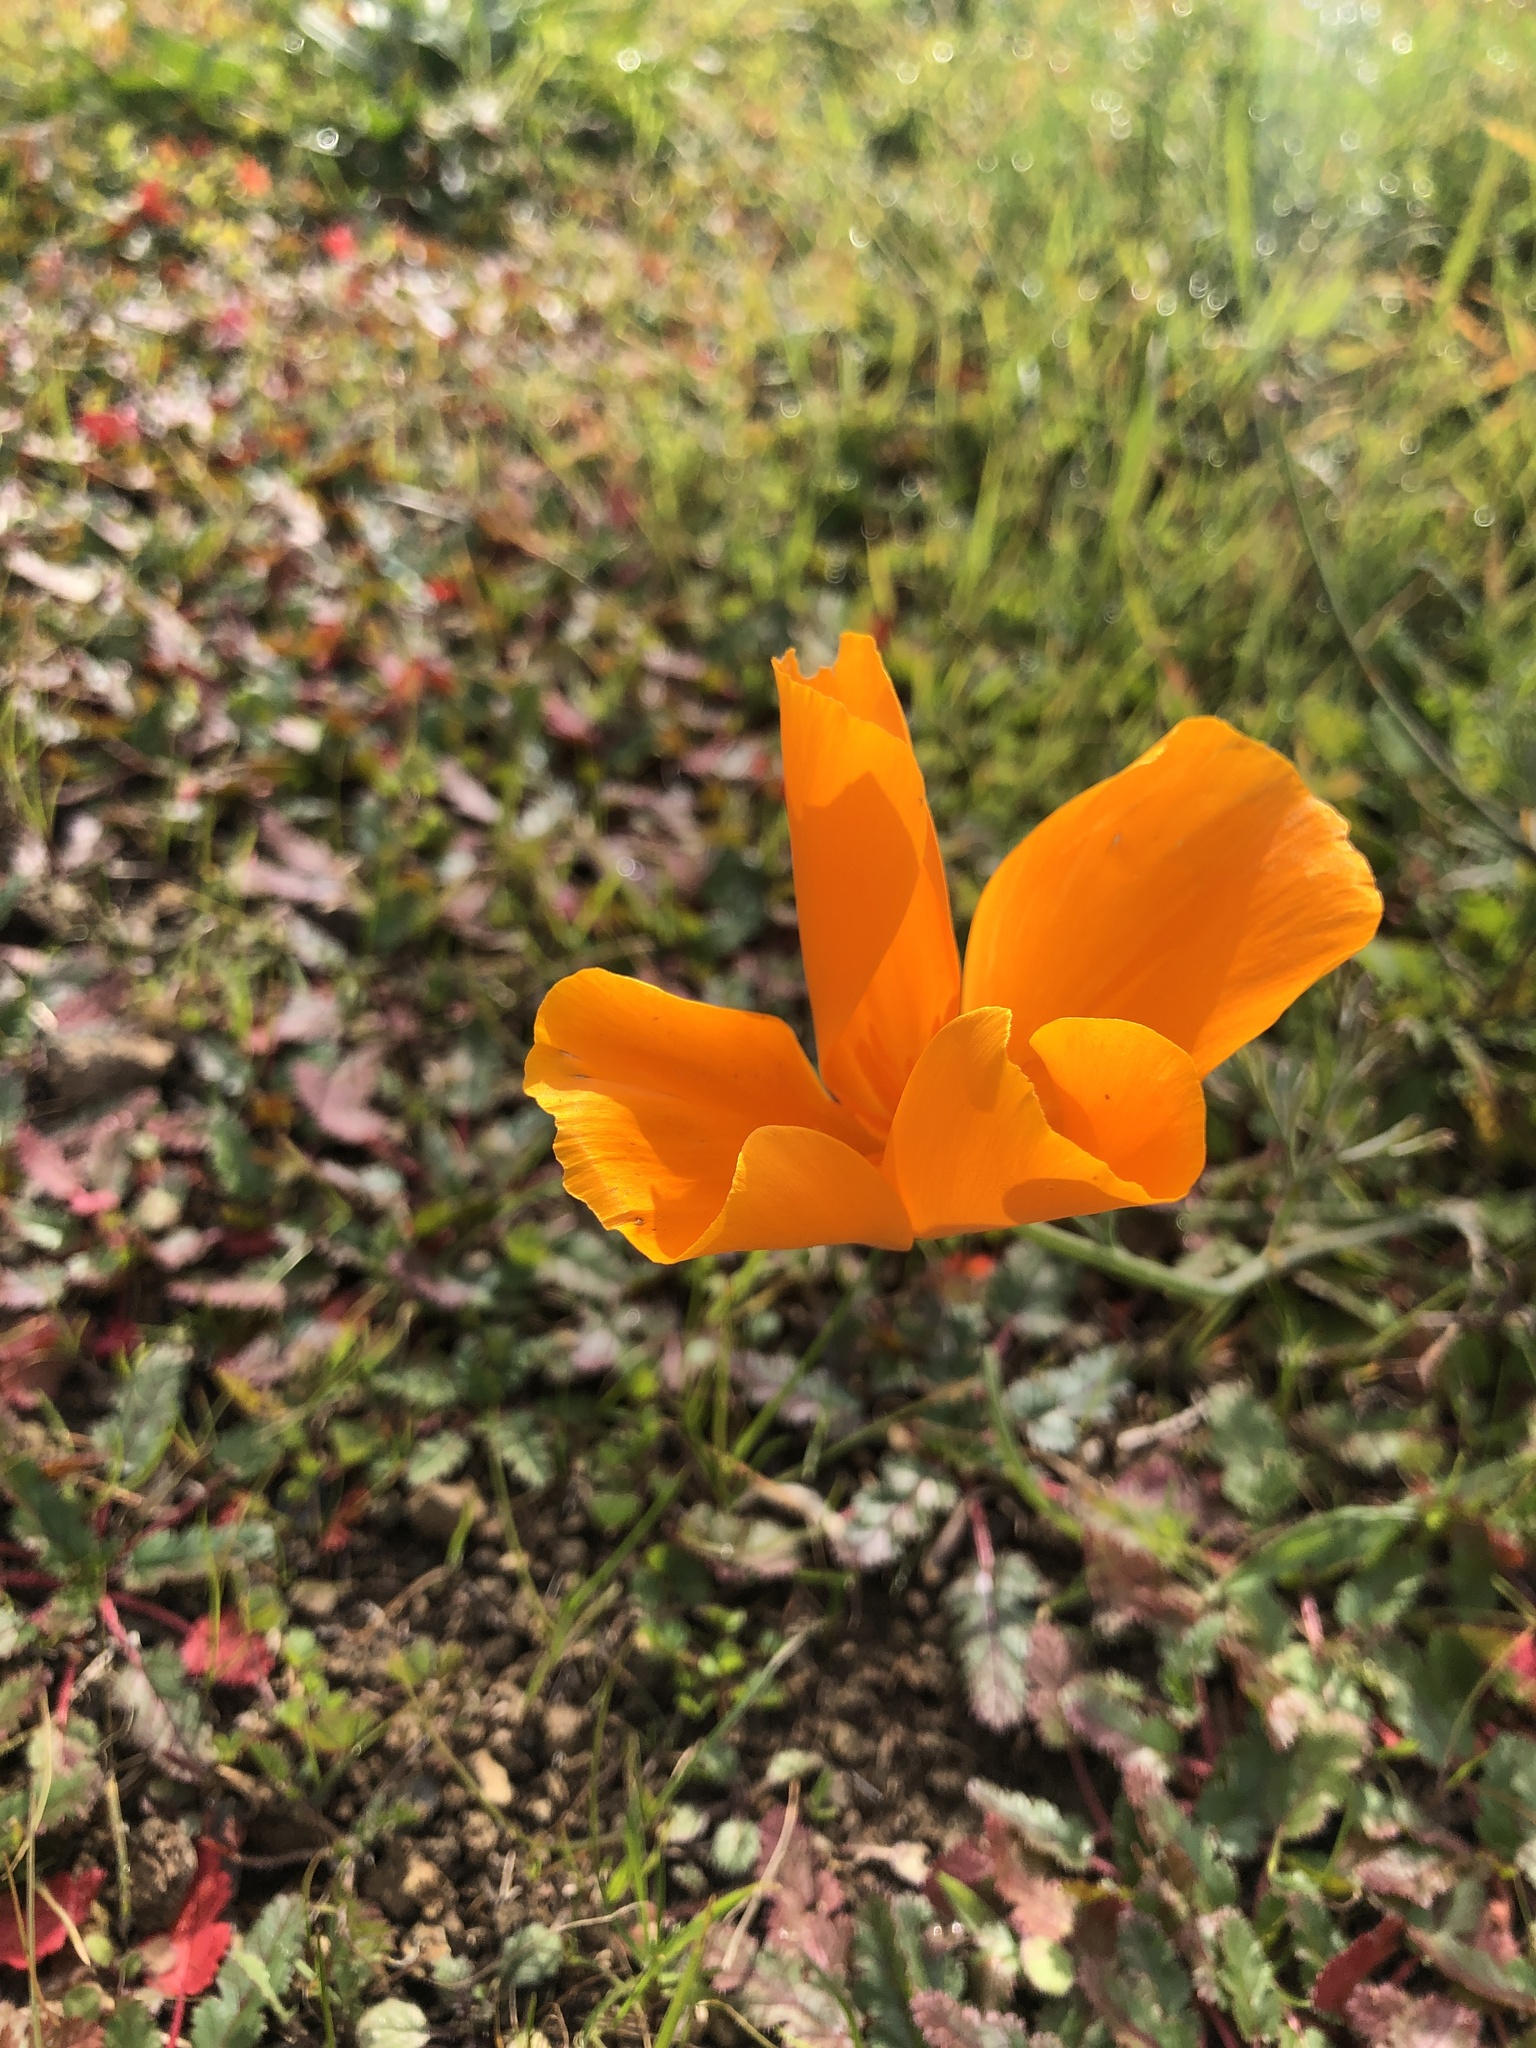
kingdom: Plantae
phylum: Tracheophyta
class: Magnoliopsida
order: Ranunculales
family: Papaveraceae
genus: Eschscholzia
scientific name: Eschscholzia californica
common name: California poppy
